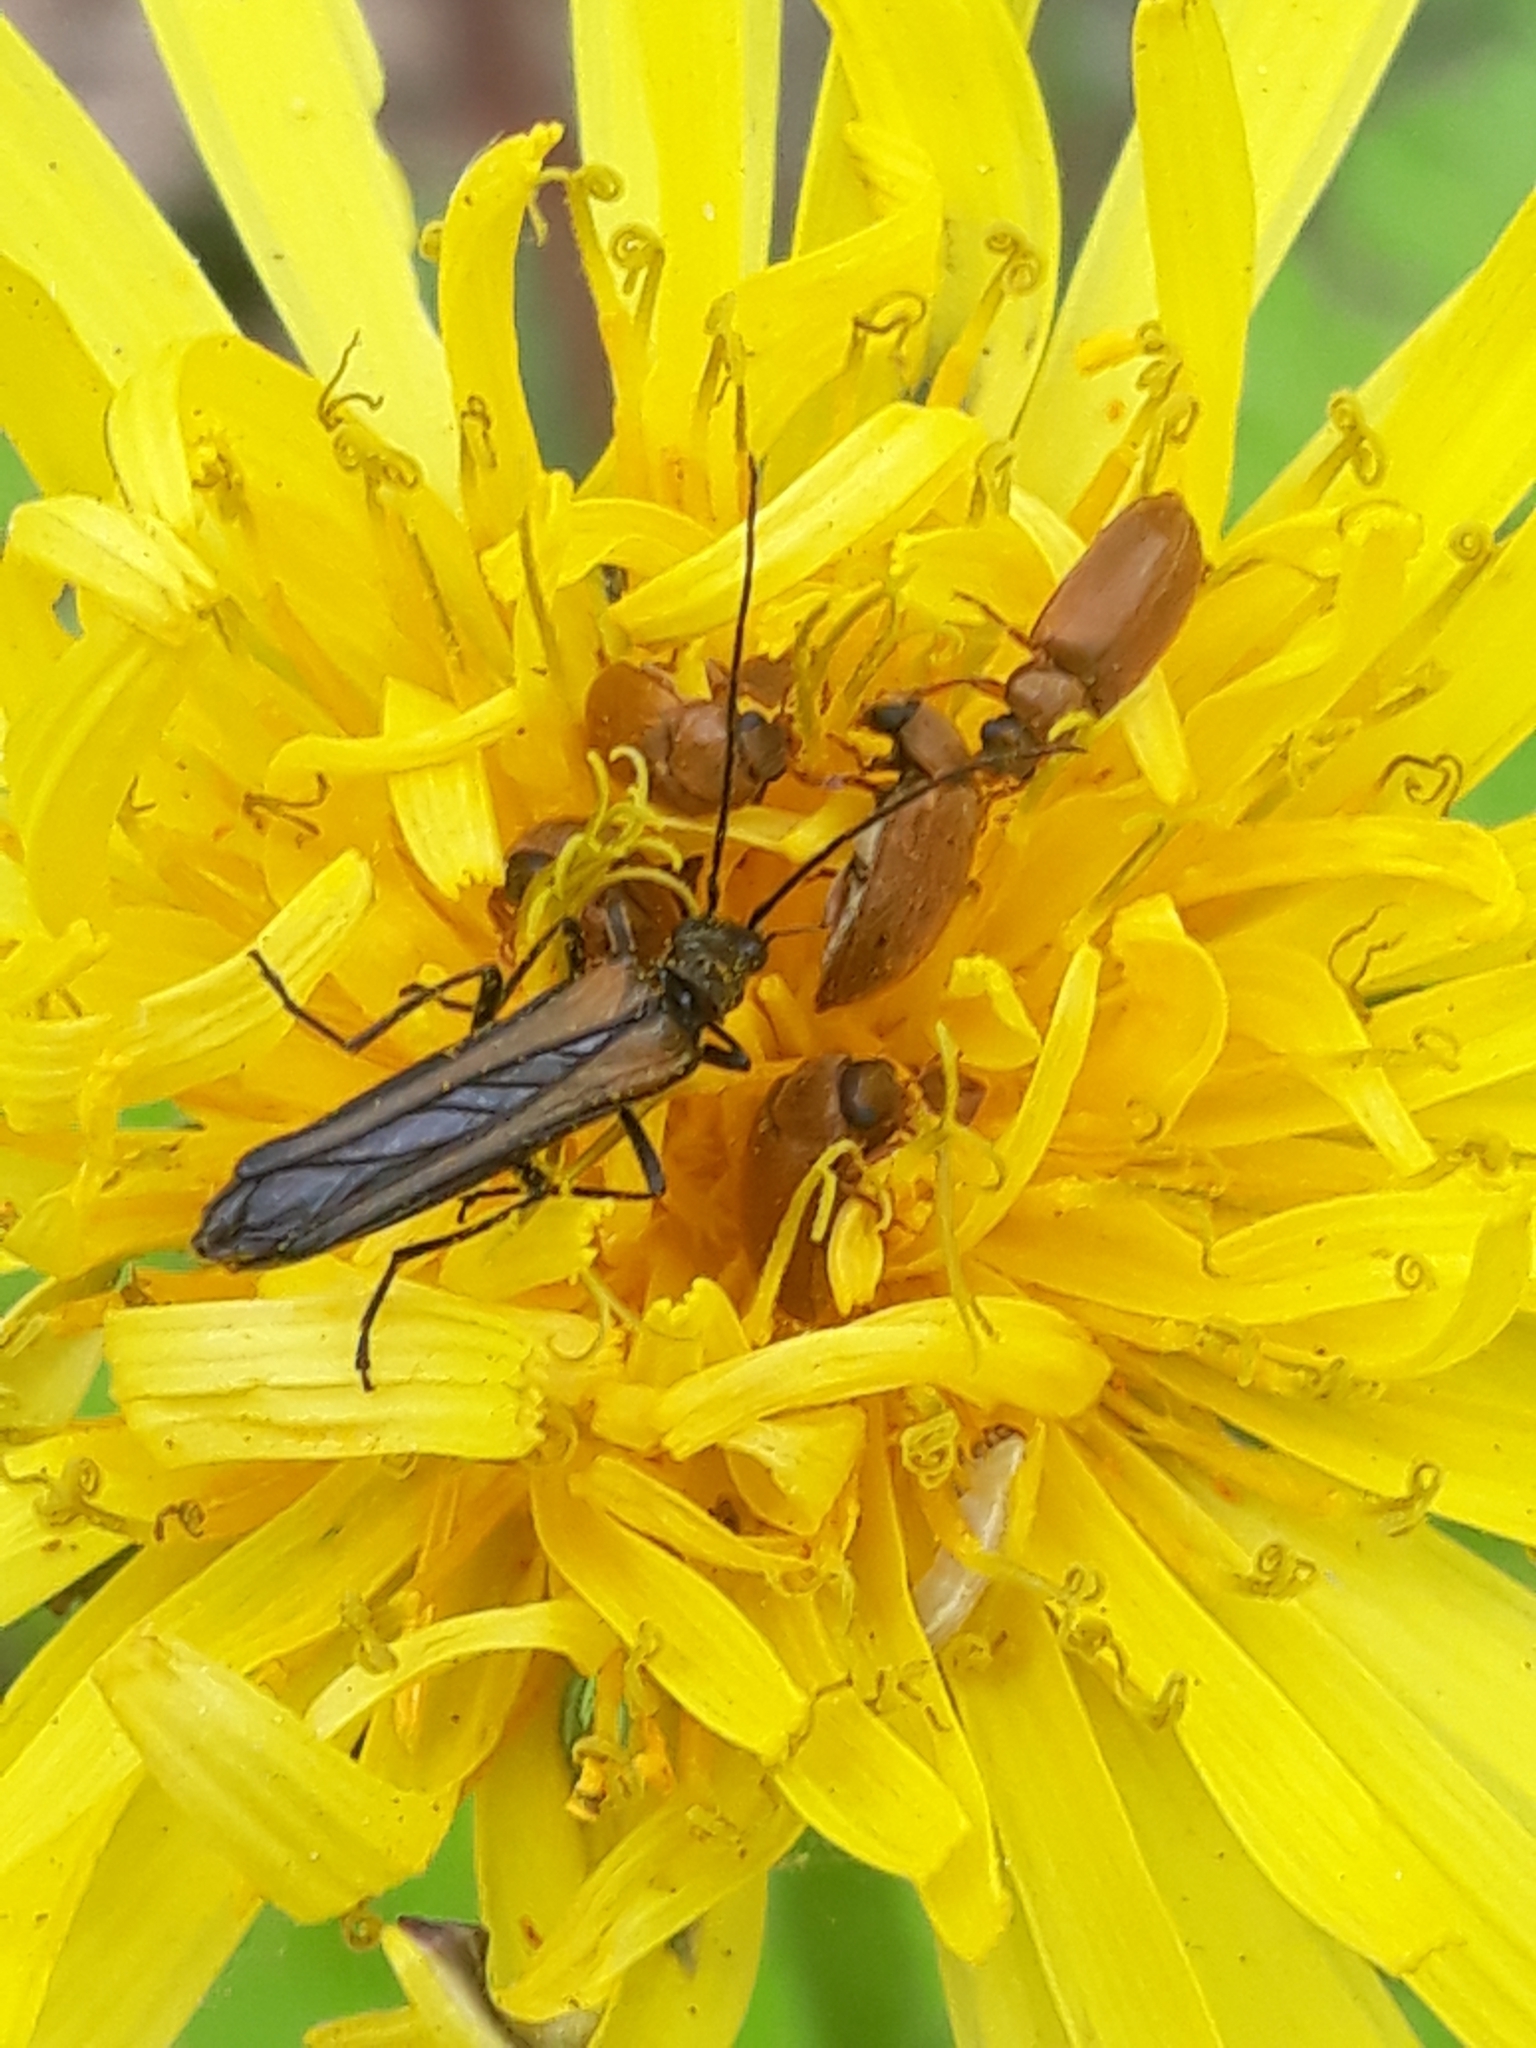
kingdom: Animalia
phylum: Arthropoda
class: Insecta
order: Coleoptera
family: Oedemeridae
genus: Oedemera
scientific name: Oedemera pthysica
